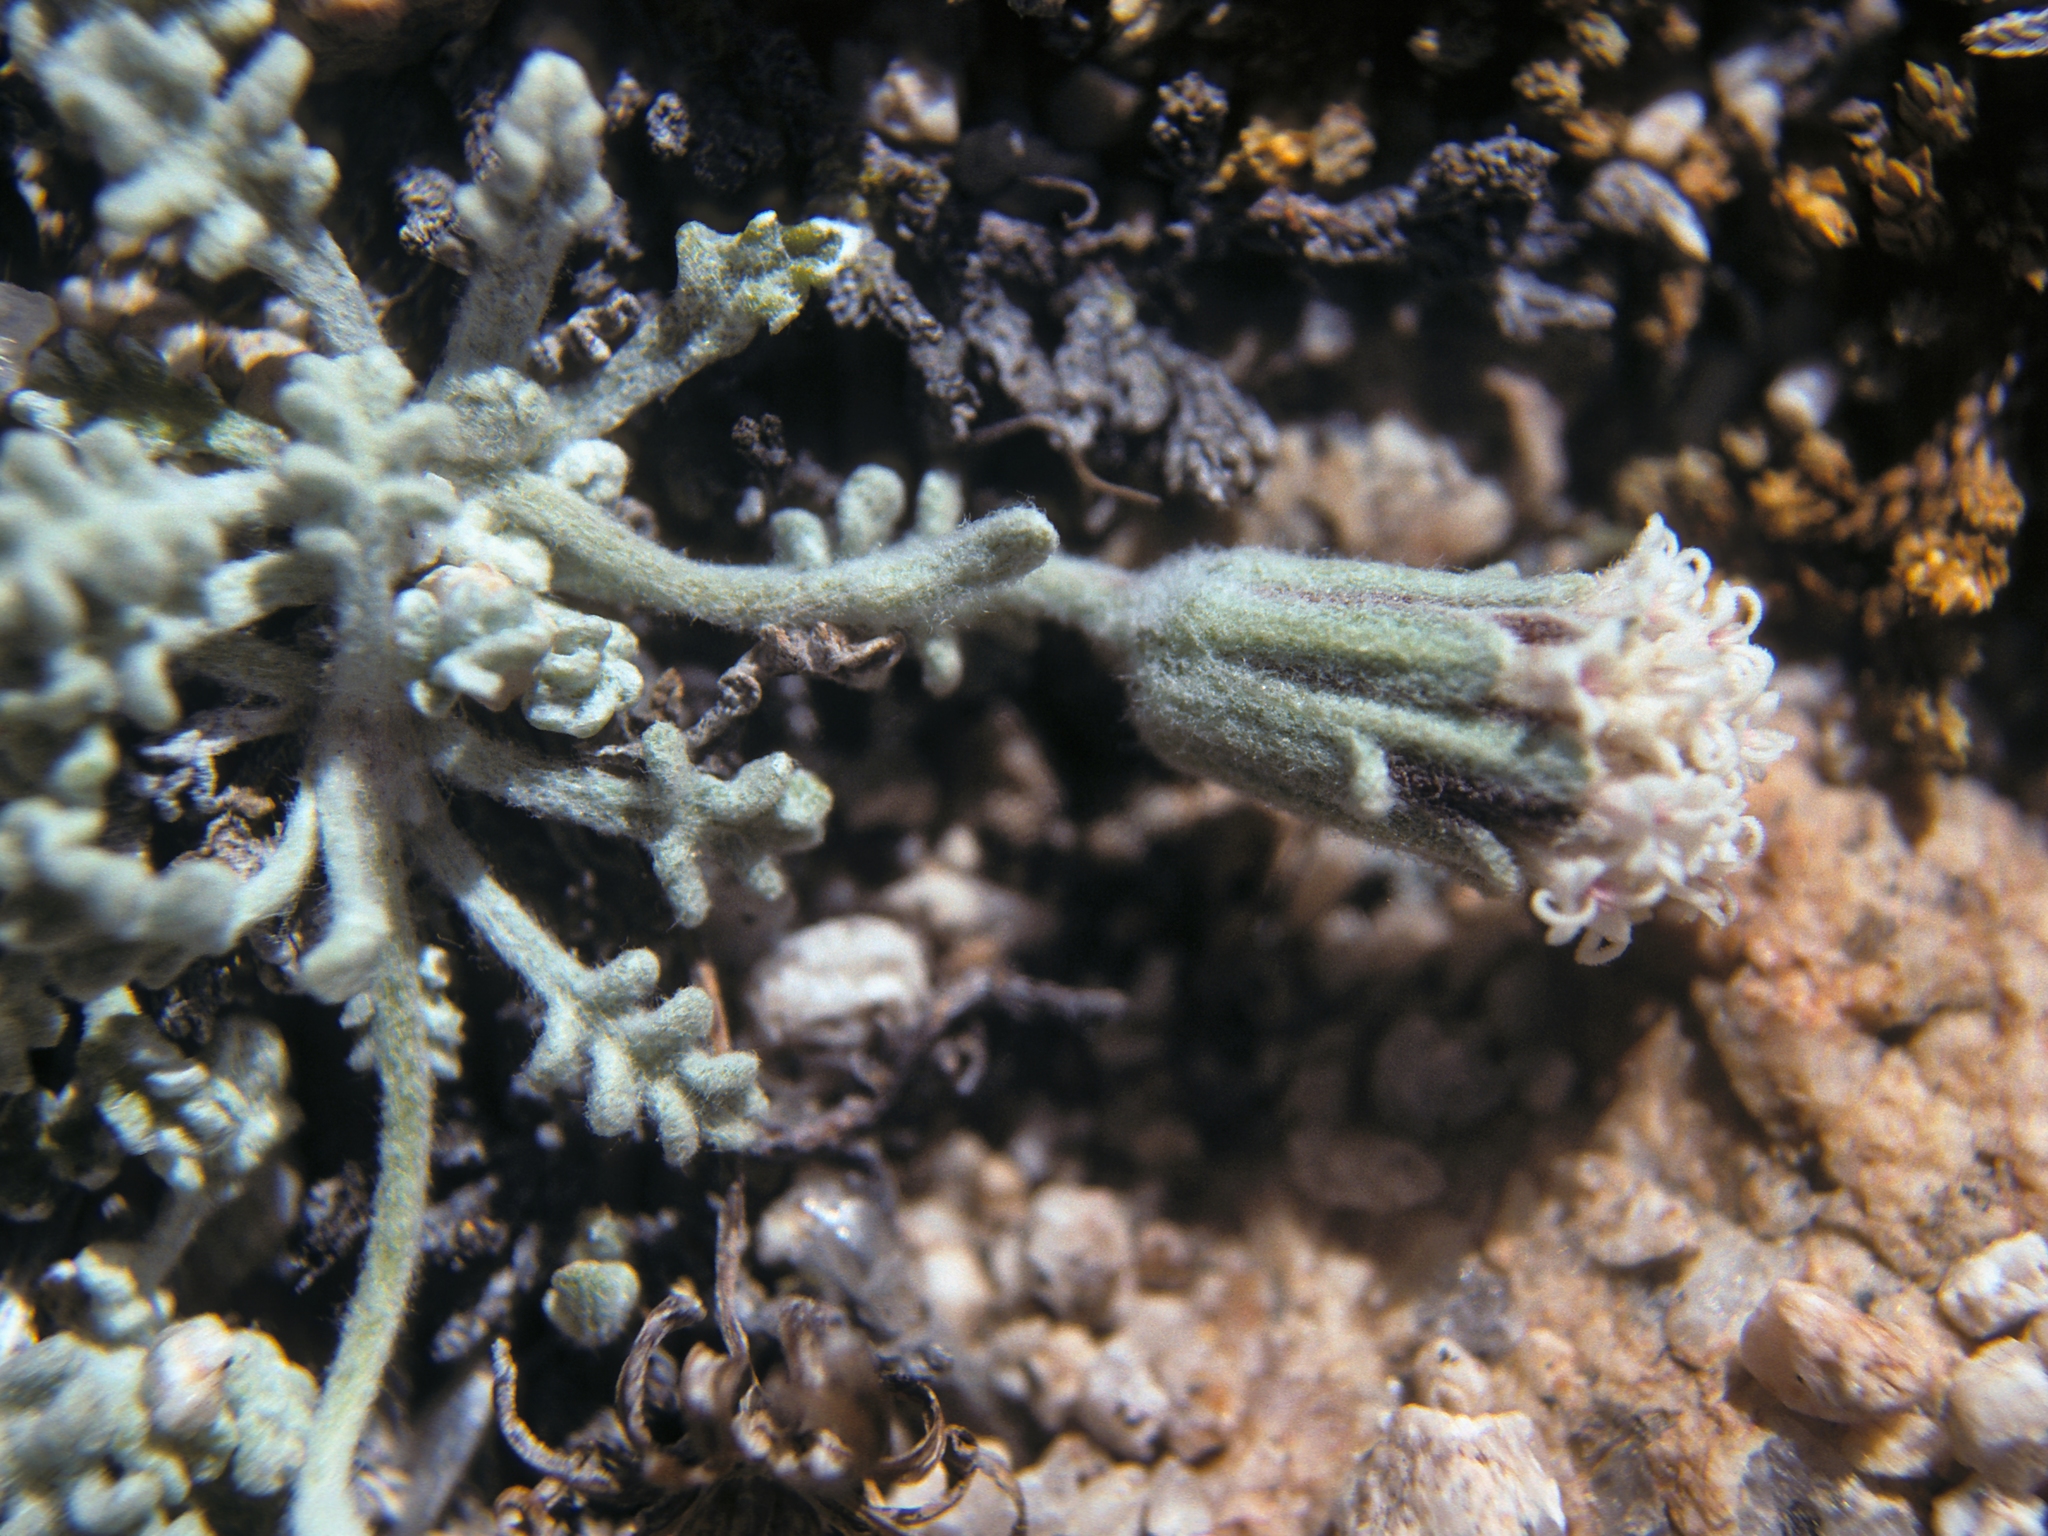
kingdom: Plantae
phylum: Tracheophyta
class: Magnoliopsida
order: Asterales
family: Asteraceae
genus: Chaenactis
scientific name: Chaenactis alpigena
